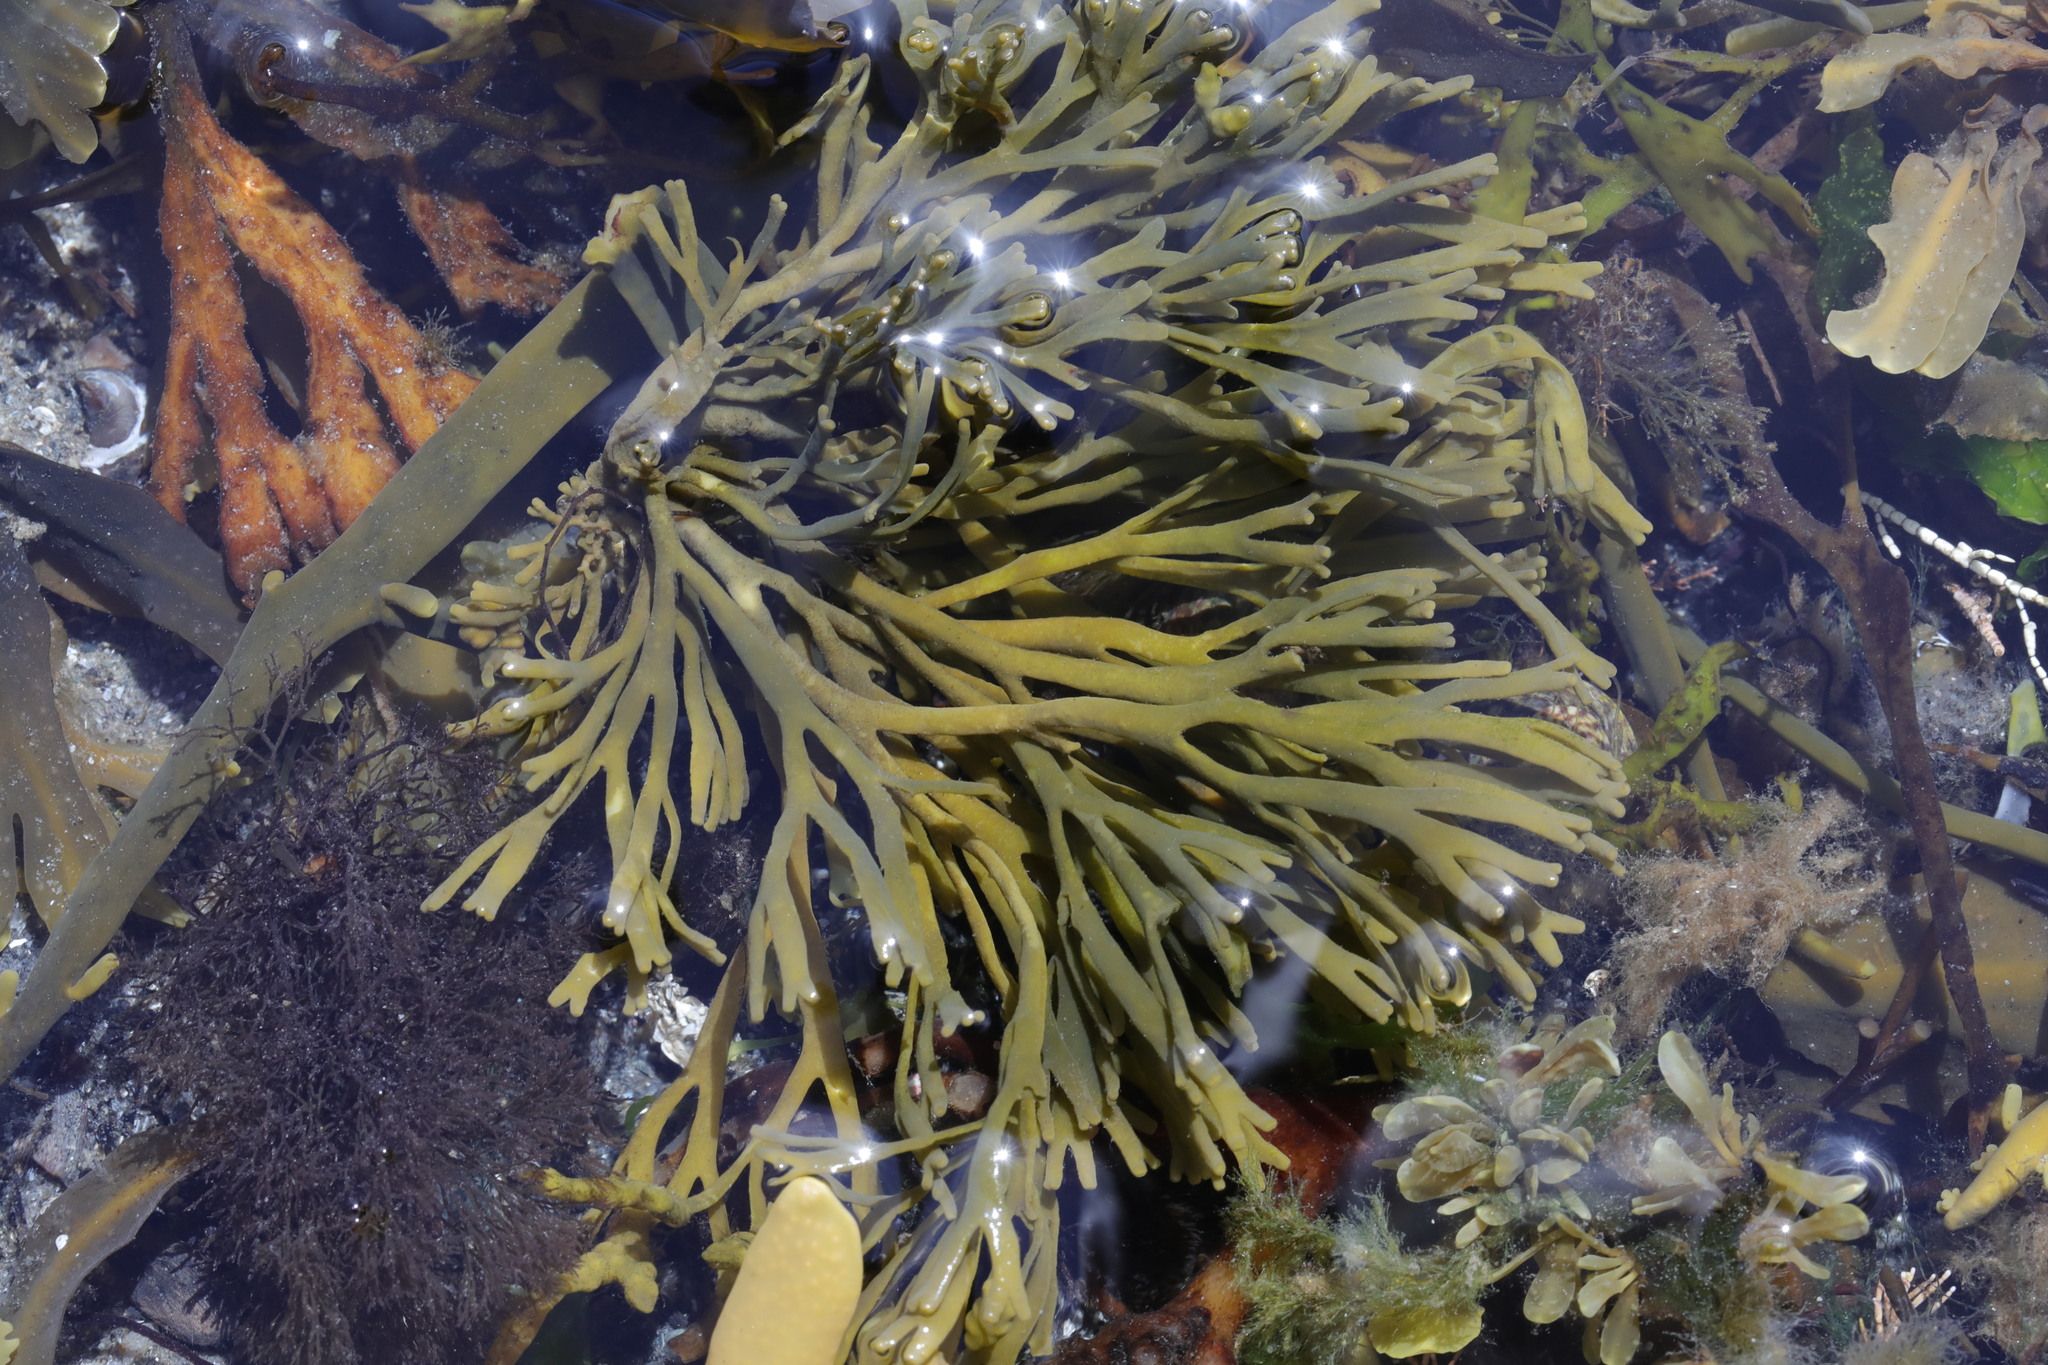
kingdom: Chromista
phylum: Ochrophyta
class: Phaeophyceae
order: Fucales
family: Fucaceae
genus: Pelvetia
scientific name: Pelvetia canaliculata
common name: Channelled wrack
